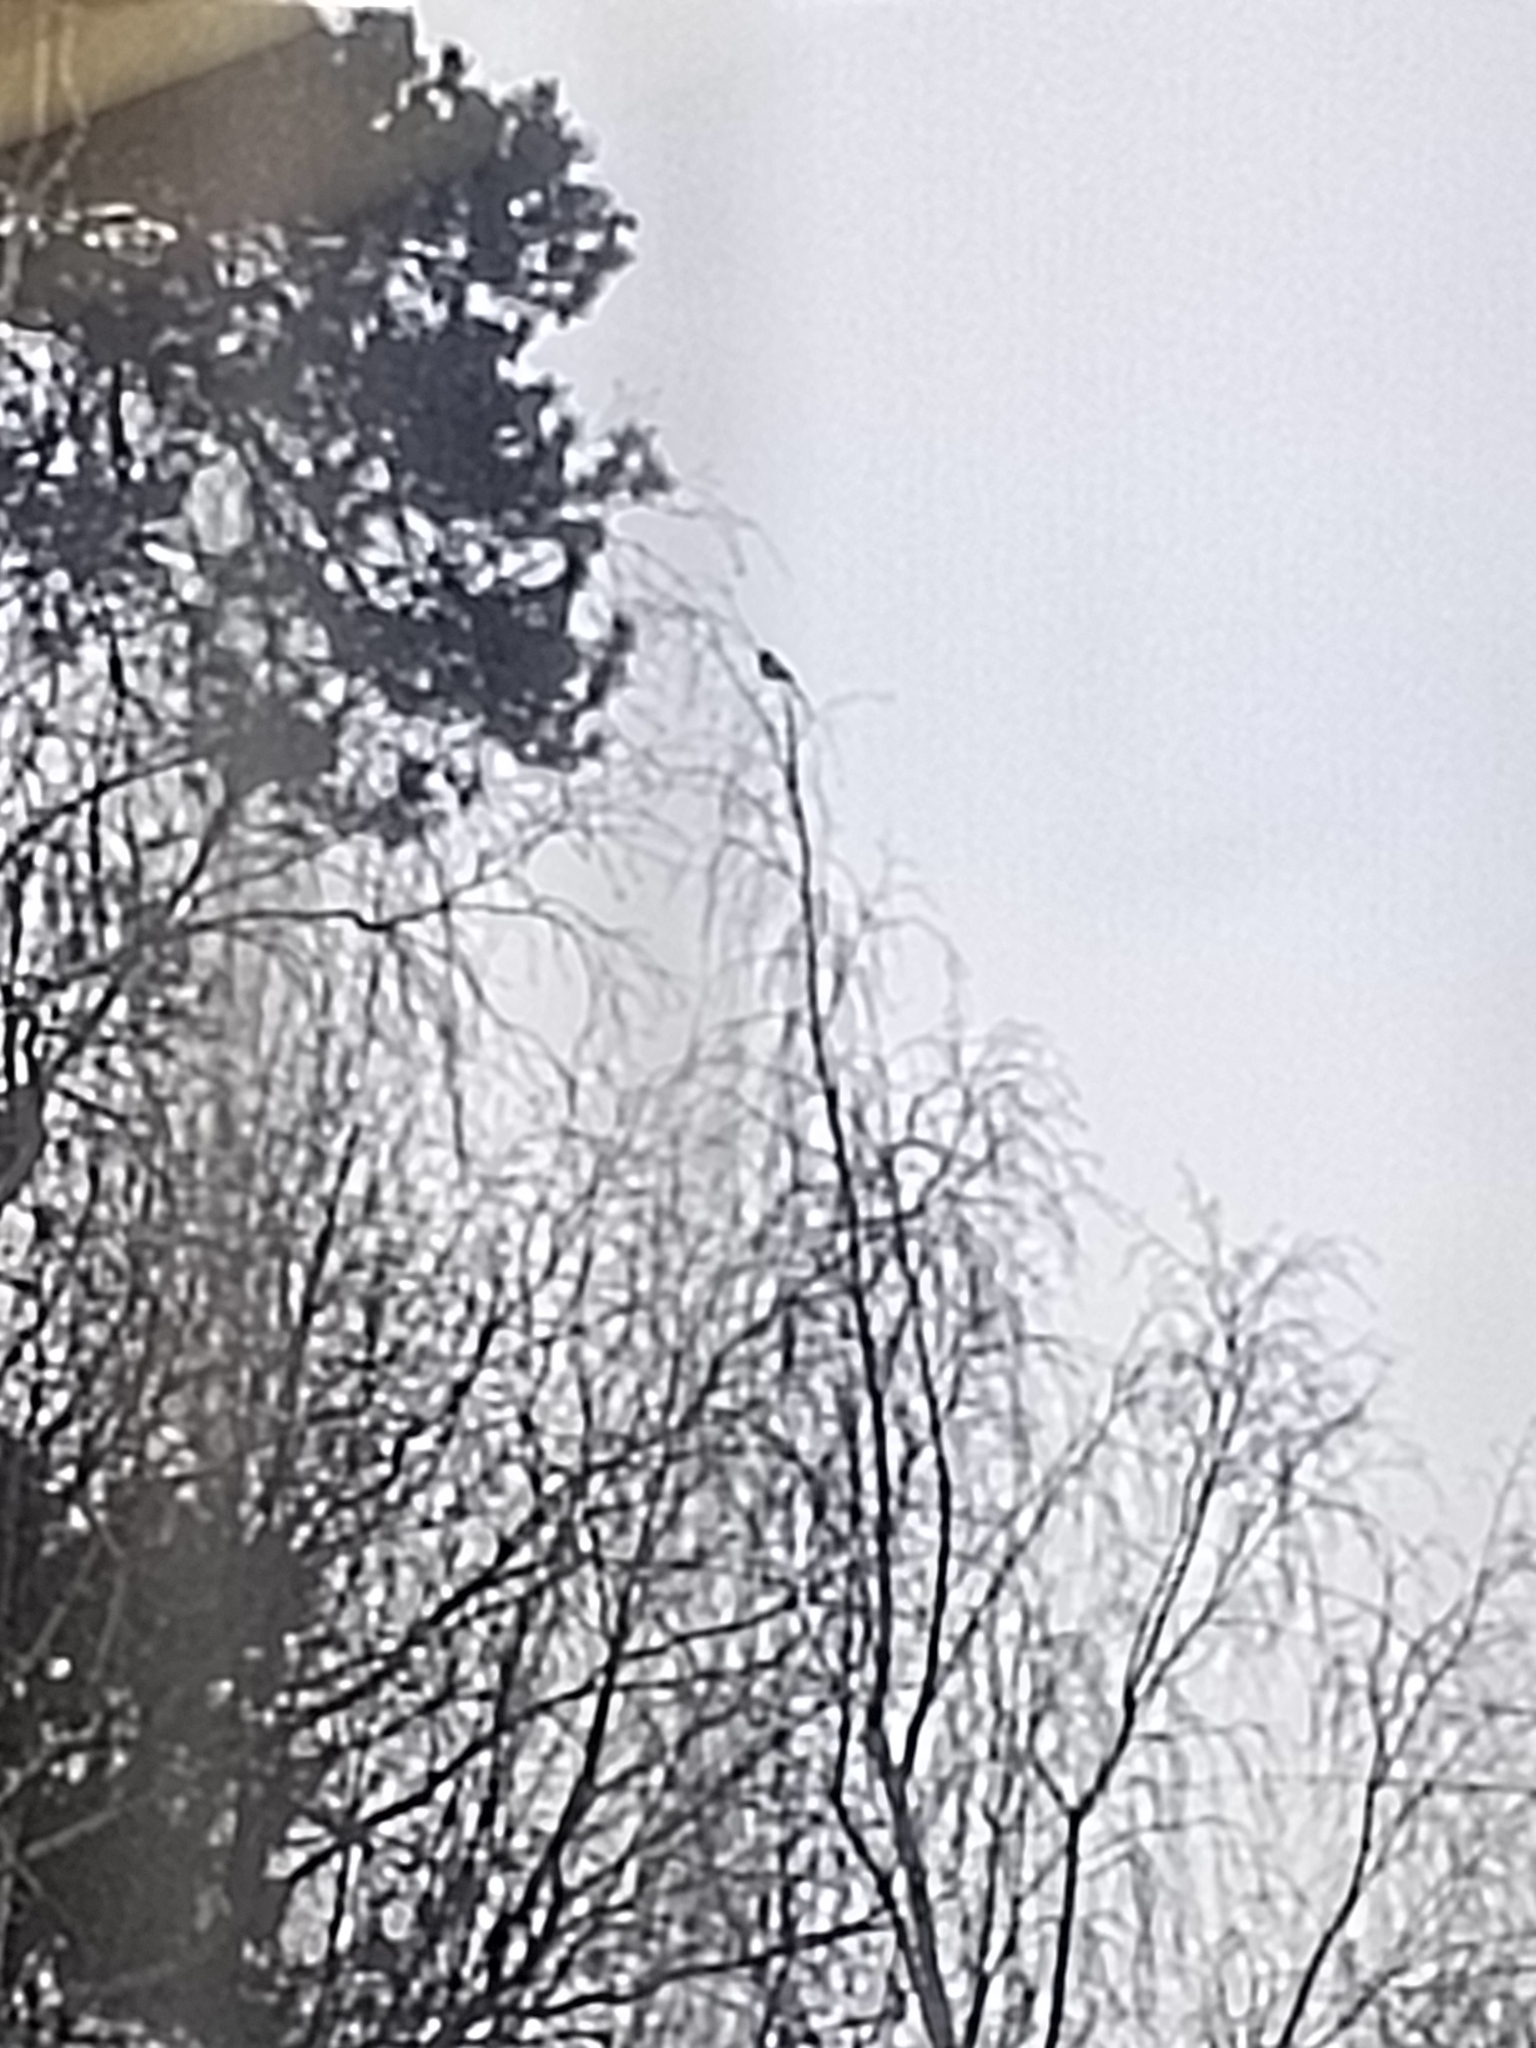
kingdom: Animalia
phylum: Chordata
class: Aves
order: Passeriformes
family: Corvidae
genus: Pica
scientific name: Pica pica
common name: Eurasian magpie
